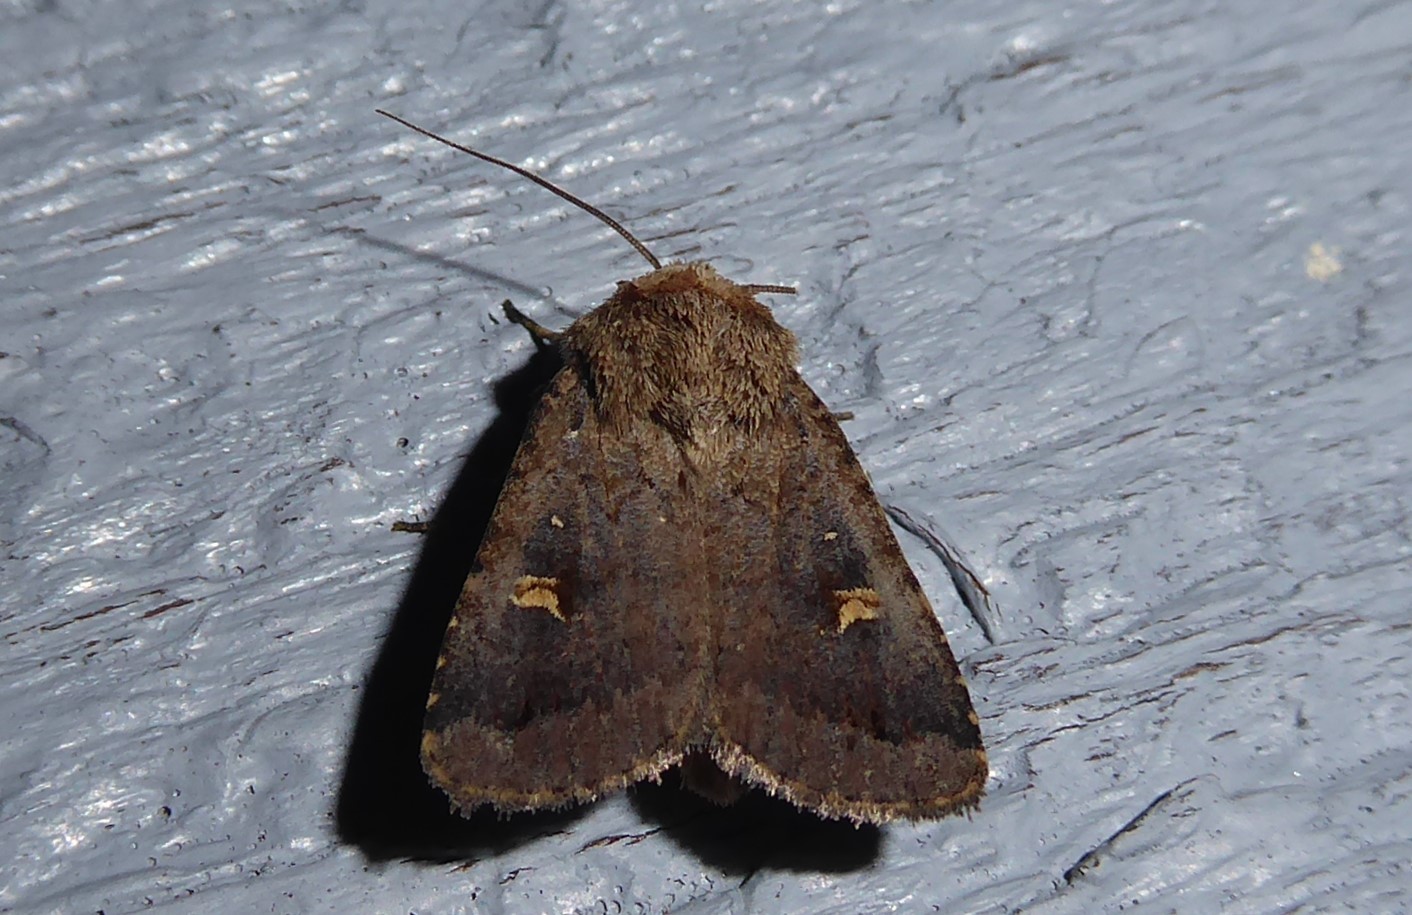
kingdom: Animalia
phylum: Arthropoda
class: Insecta
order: Lepidoptera
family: Noctuidae
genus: Proteuxoa
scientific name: Proteuxoa tetronycha
